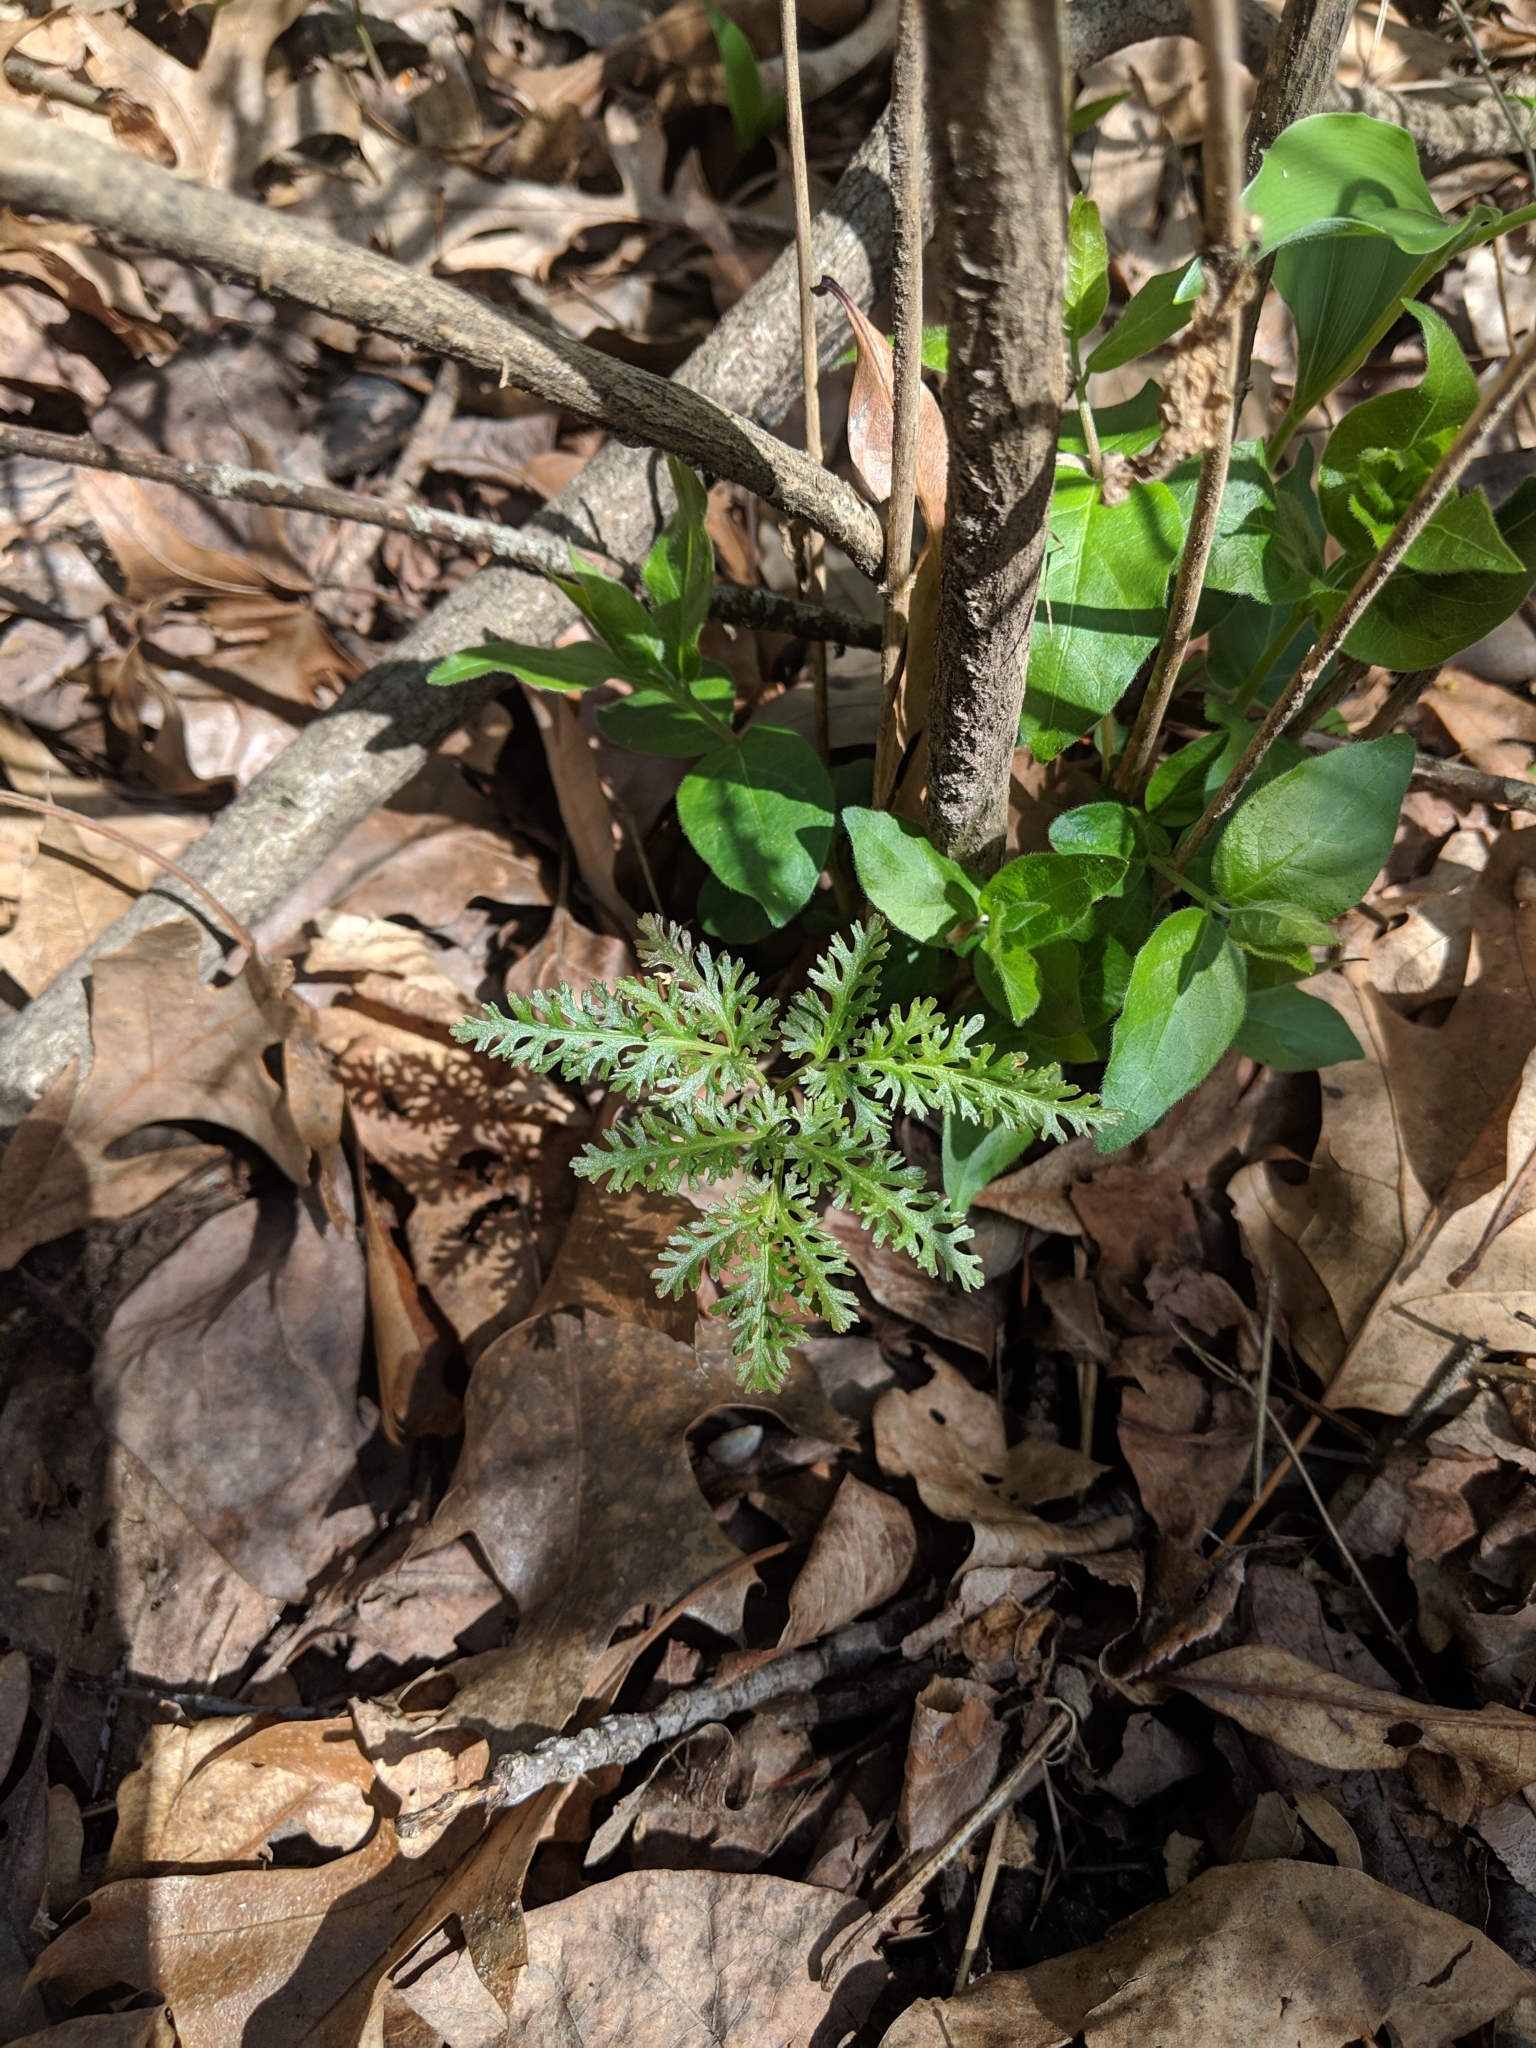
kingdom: Plantae
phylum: Tracheophyta
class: Polypodiopsida
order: Ophioglossales
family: Ophioglossaceae
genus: Sceptridium
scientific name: Sceptridium dissectum
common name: Cut-leaved grapefern
